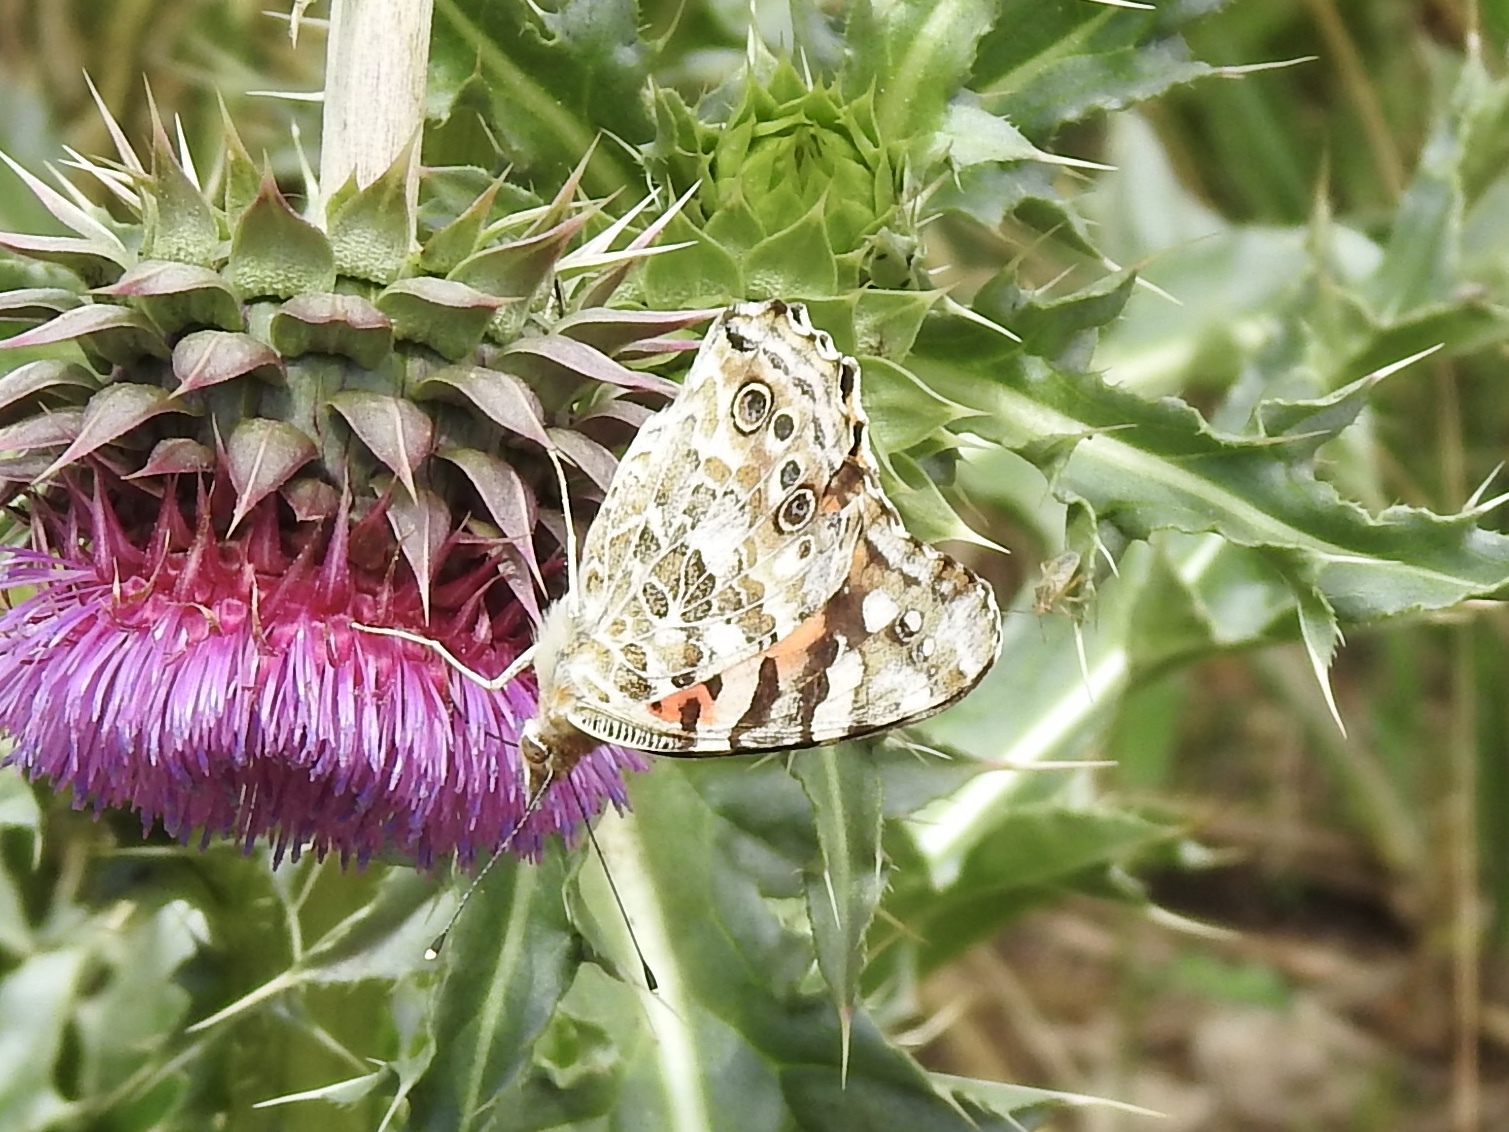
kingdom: Animalia
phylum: Arthropoda
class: Insecta
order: Lepidoptera
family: Nymphalidae
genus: Vanessa
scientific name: Vanessa cardui
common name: Painted lady
